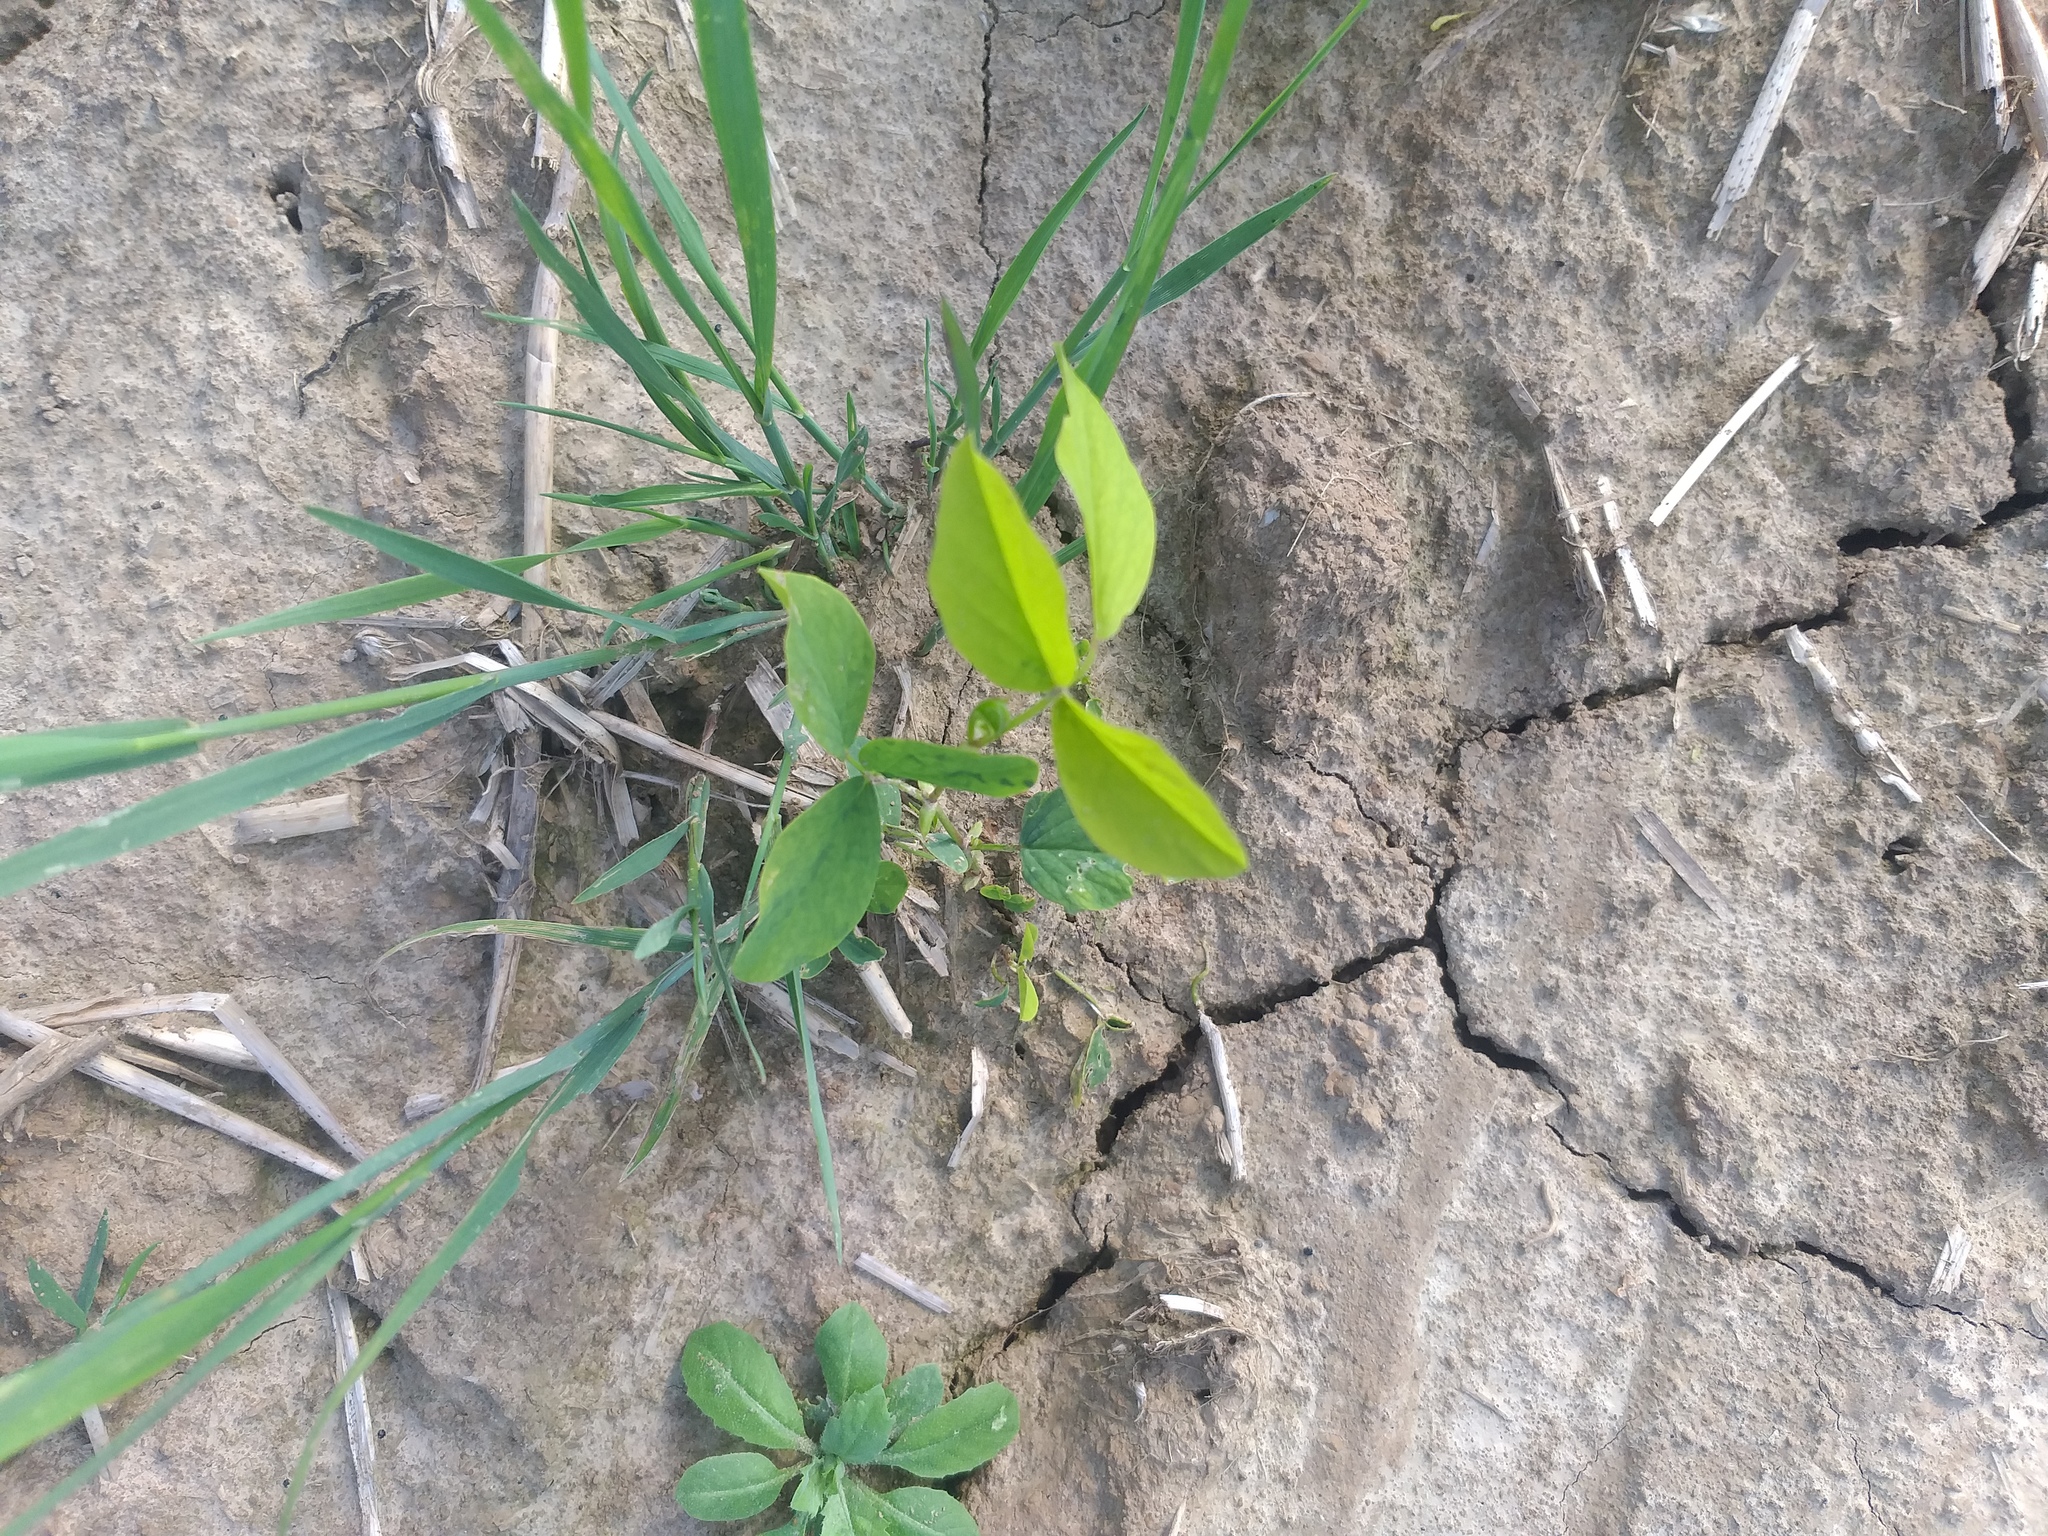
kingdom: Plantae
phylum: Tracheophyta
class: Magnoliopsida
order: Fabales
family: Fabaceae
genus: Galega
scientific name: Galega orientalis
